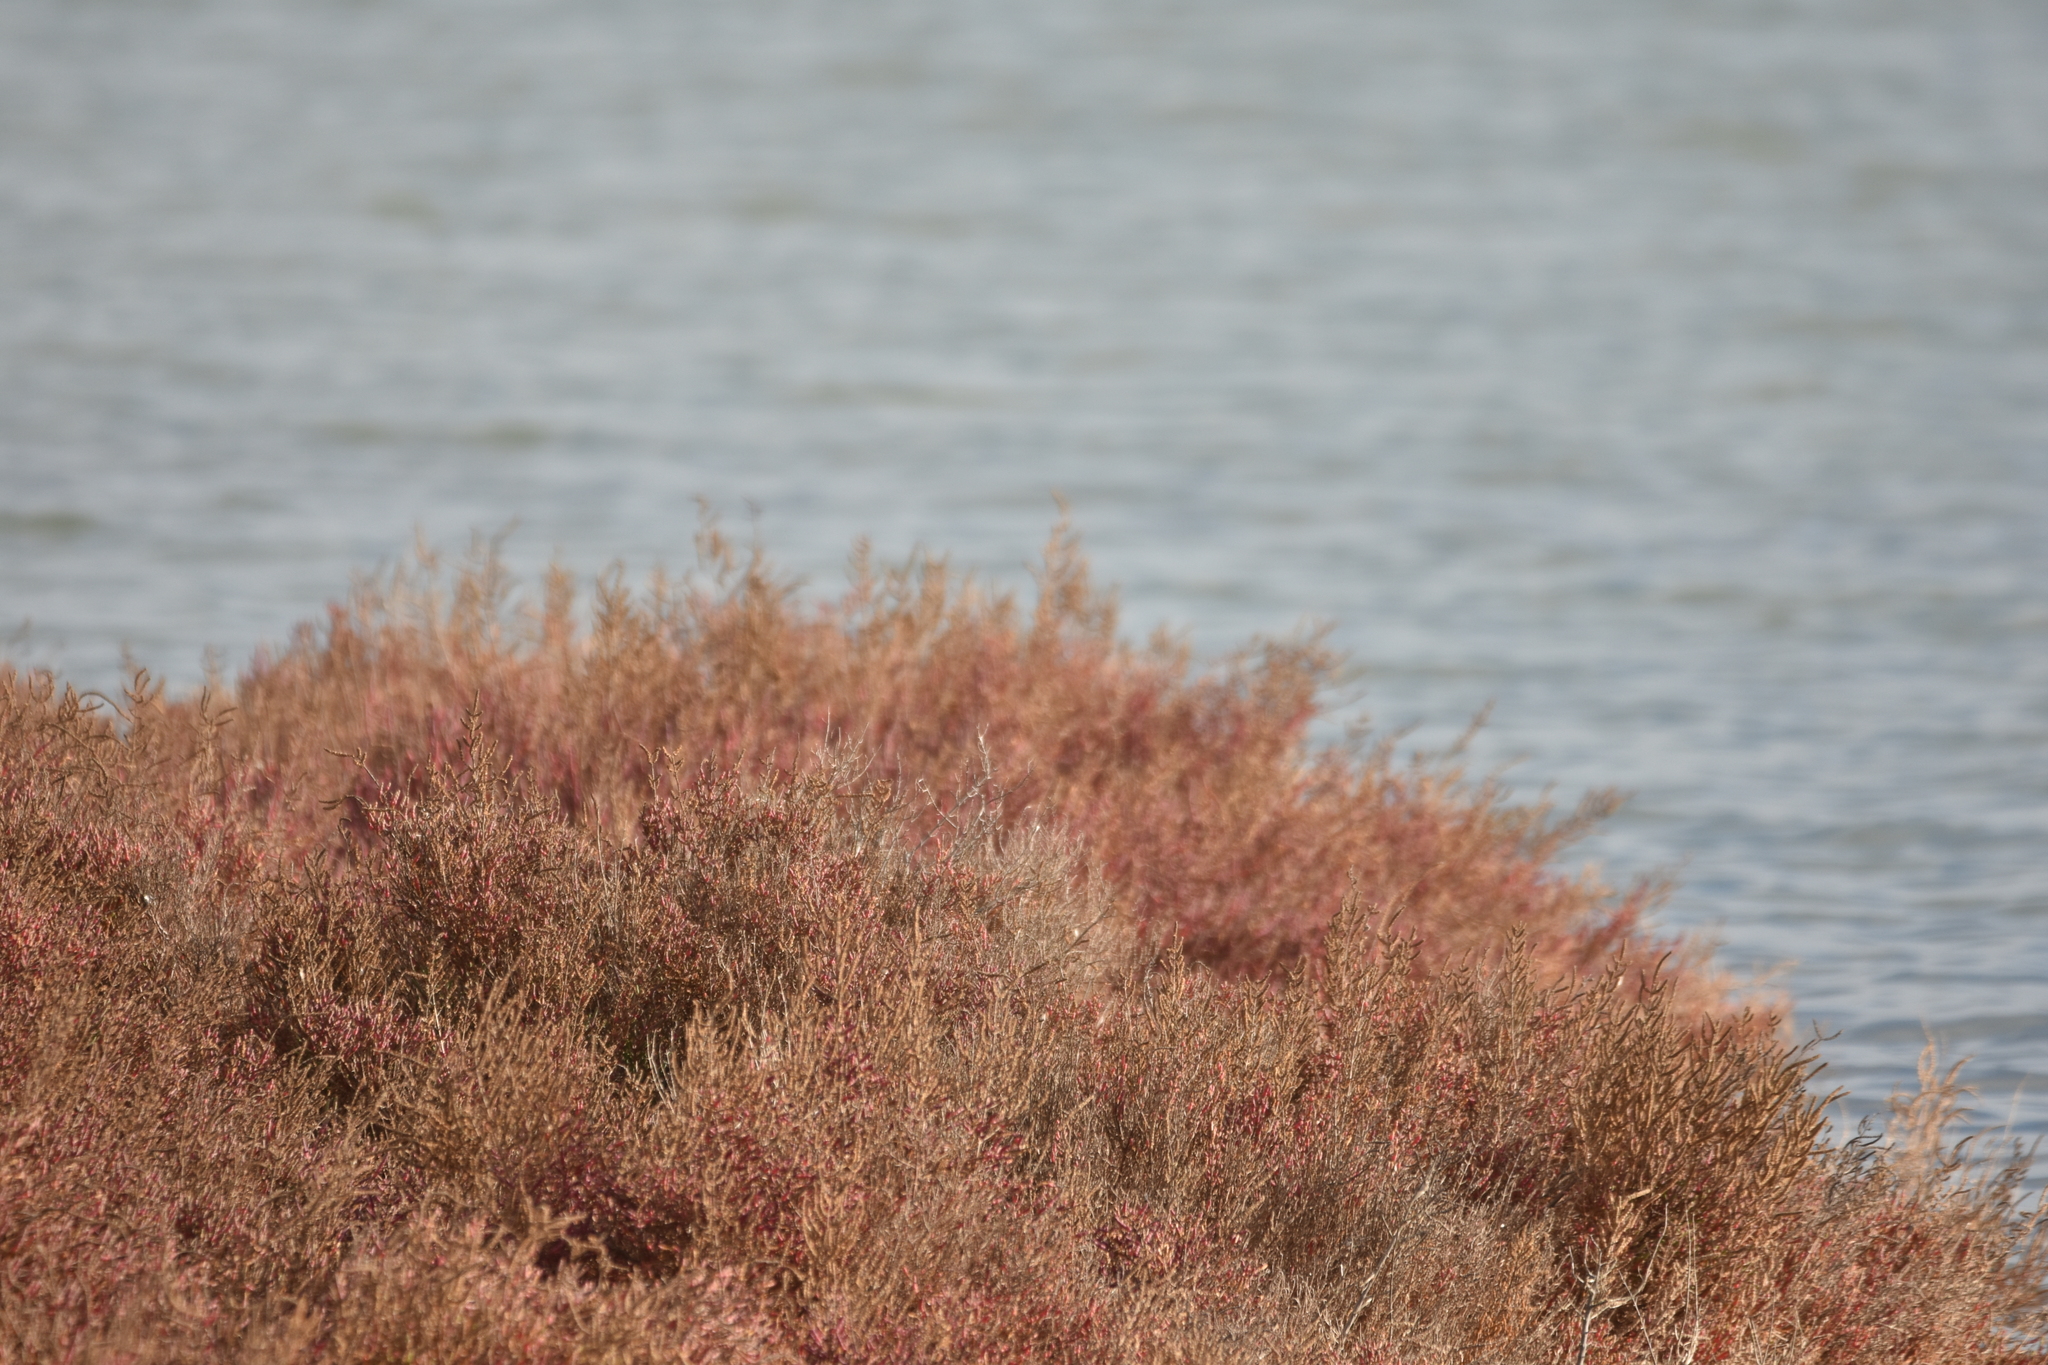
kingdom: Plantae
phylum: Tracheophyta
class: Magnoliopsida
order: Caryophyllales
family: Amaranthaceae
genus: Salicornia
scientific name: Salicornia fruticosa
